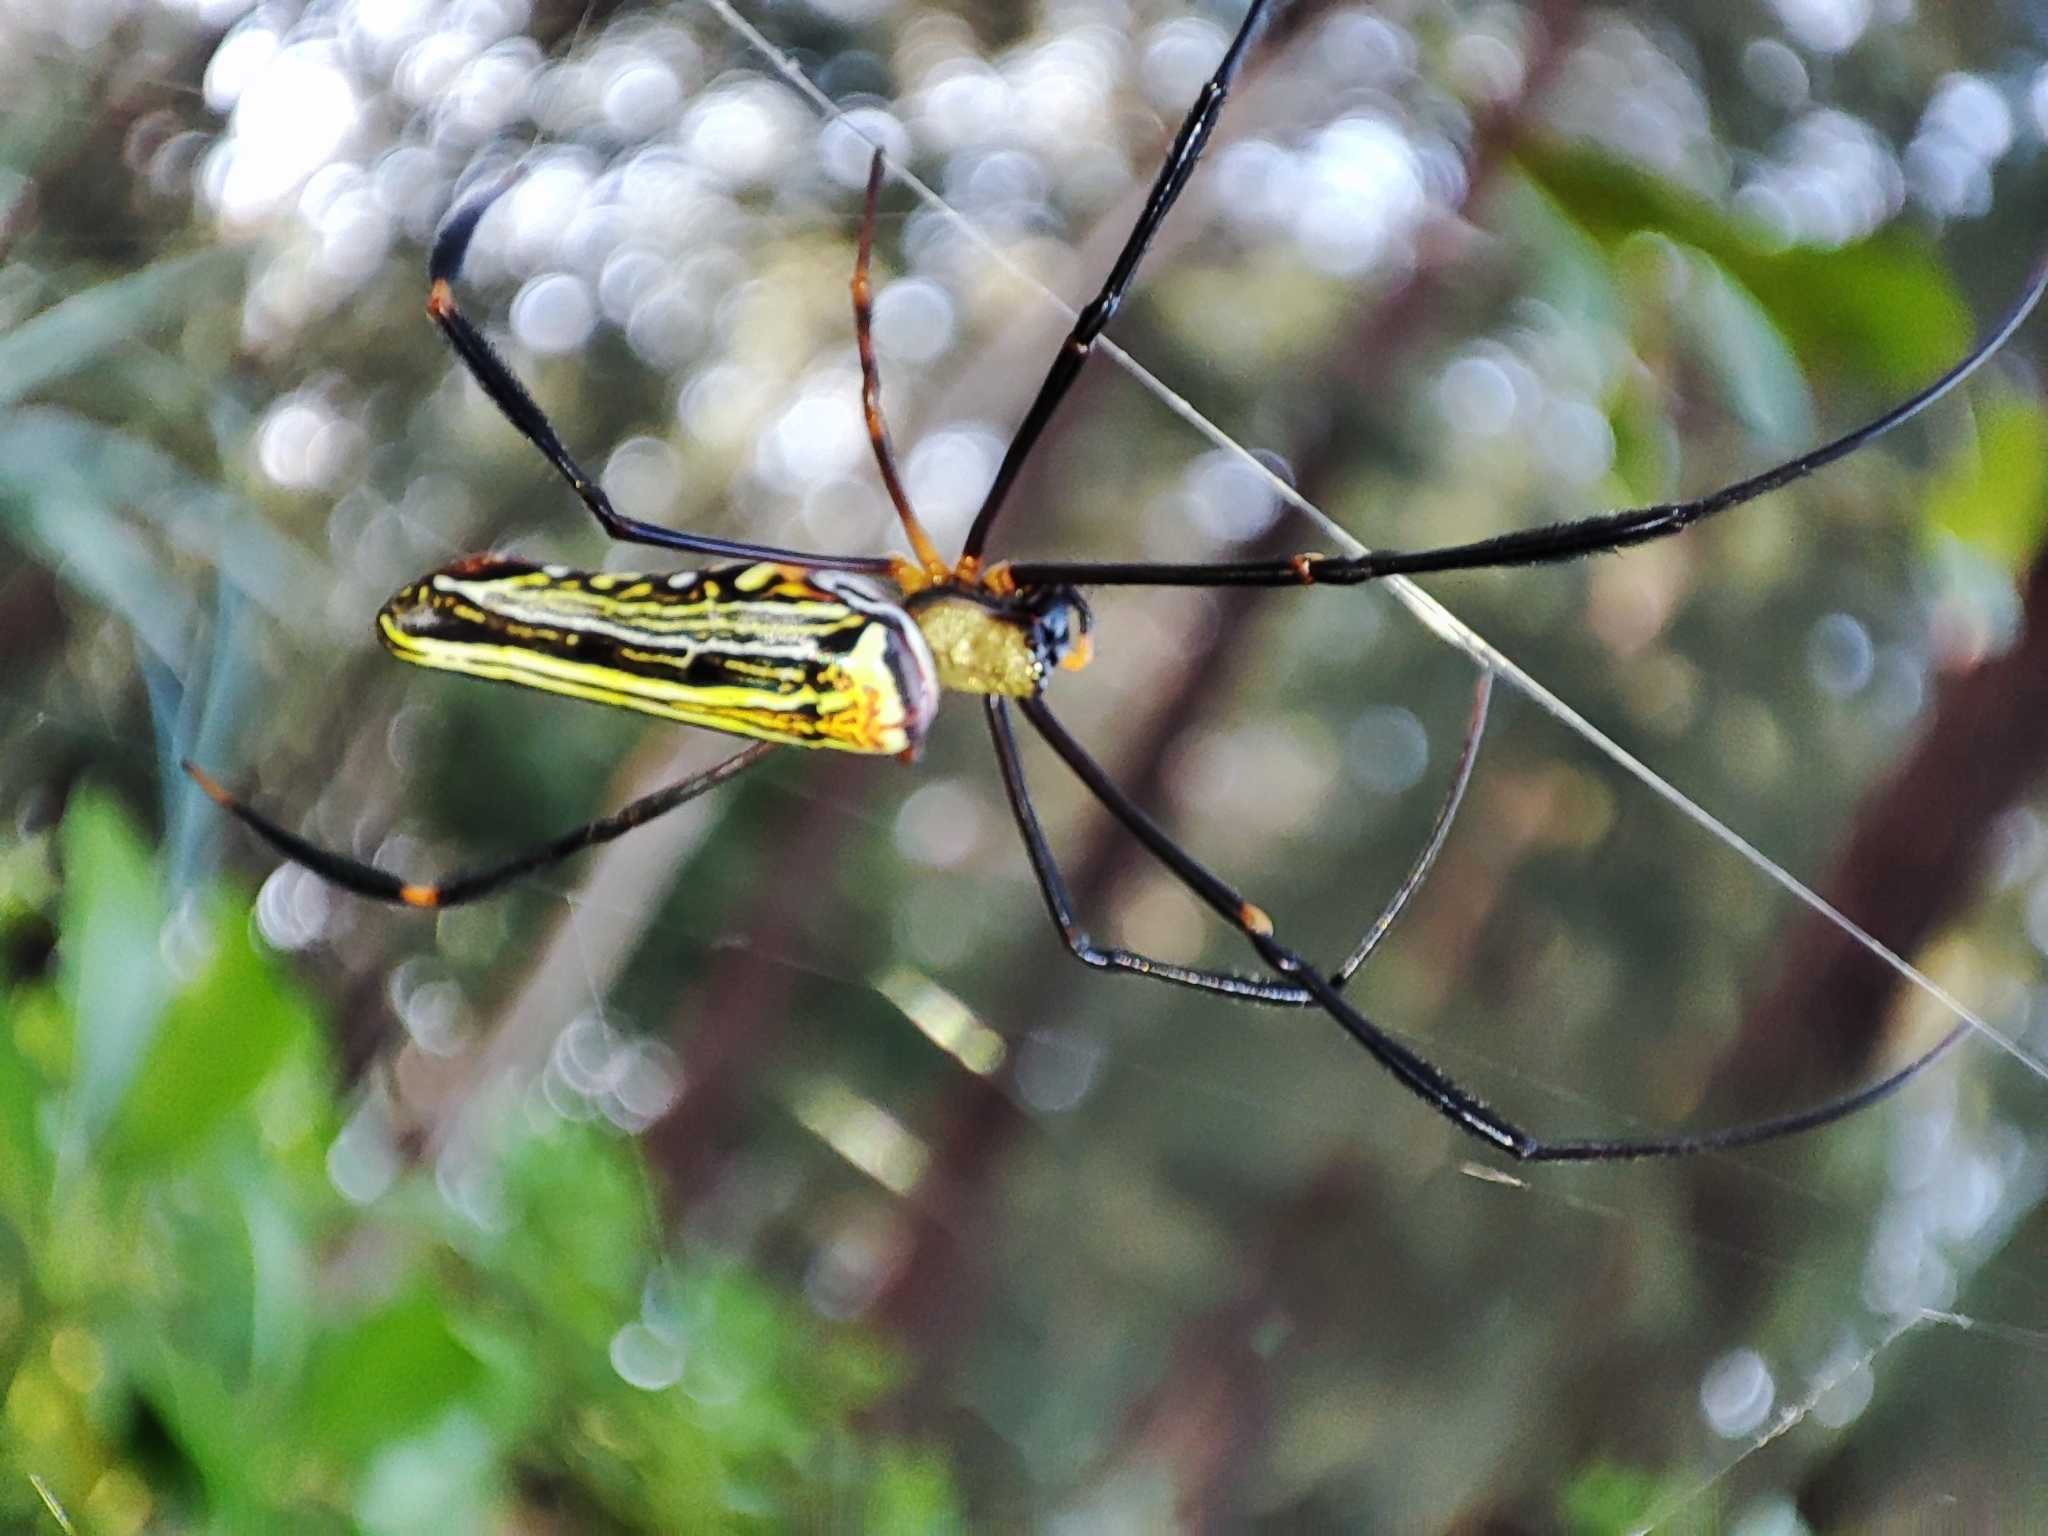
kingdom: Animalia
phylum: Arthropoda
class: Arachnida
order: Araneae
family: Araneidae
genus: Nephila
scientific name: Nephila pilipes
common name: Giant golden orb weaver
